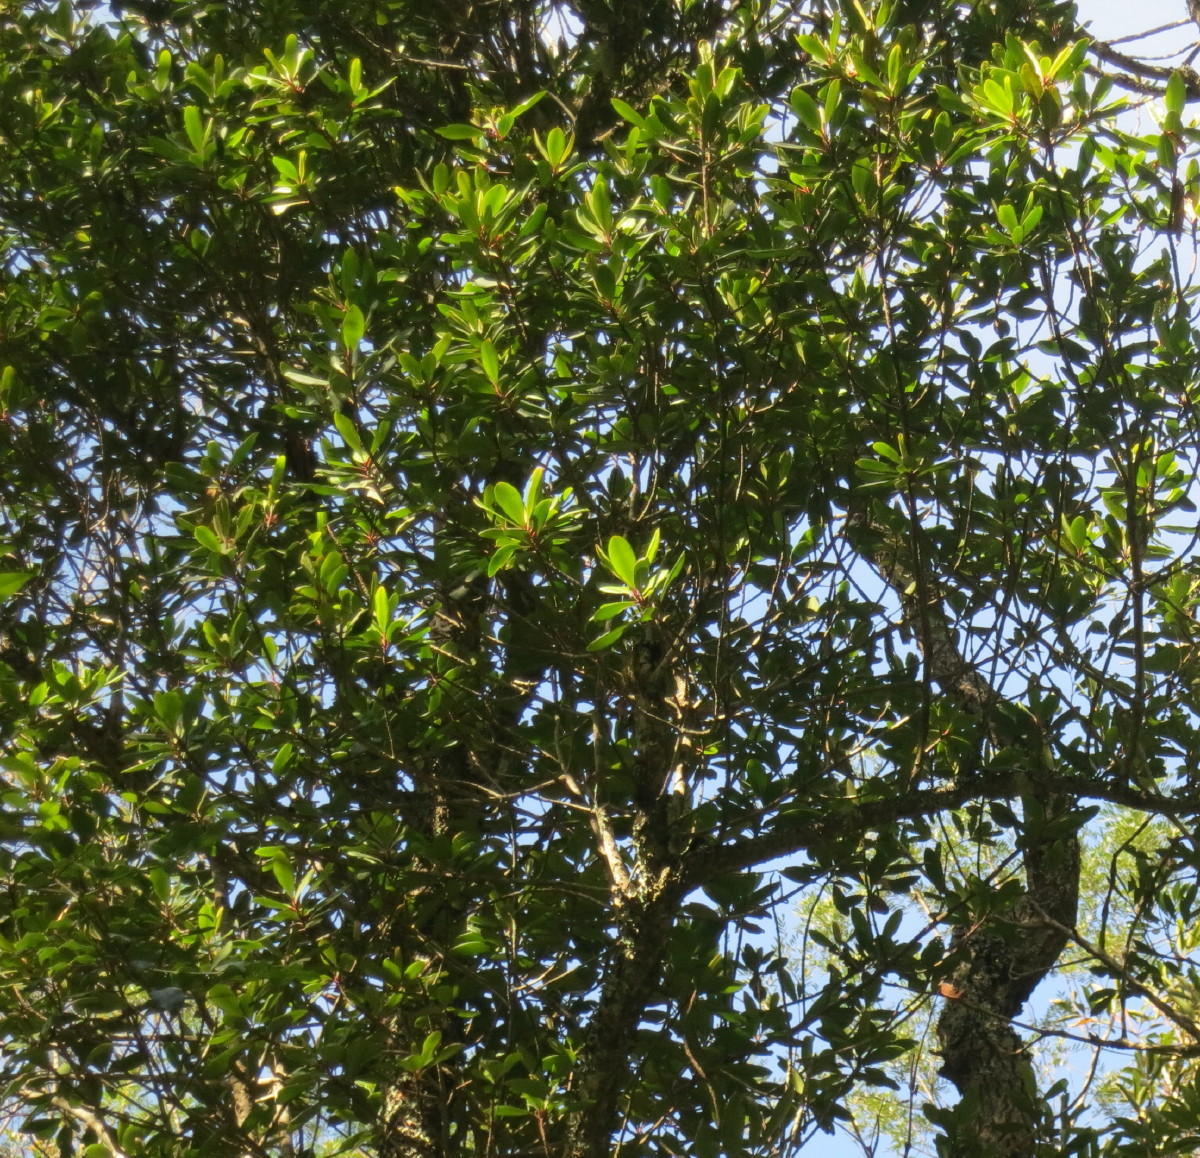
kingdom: Plantae
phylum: Tracheophyta
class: Magnoliopsida
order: Ericales
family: Primulaceae
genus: Myrsine
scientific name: Myrsine melanophloeos
